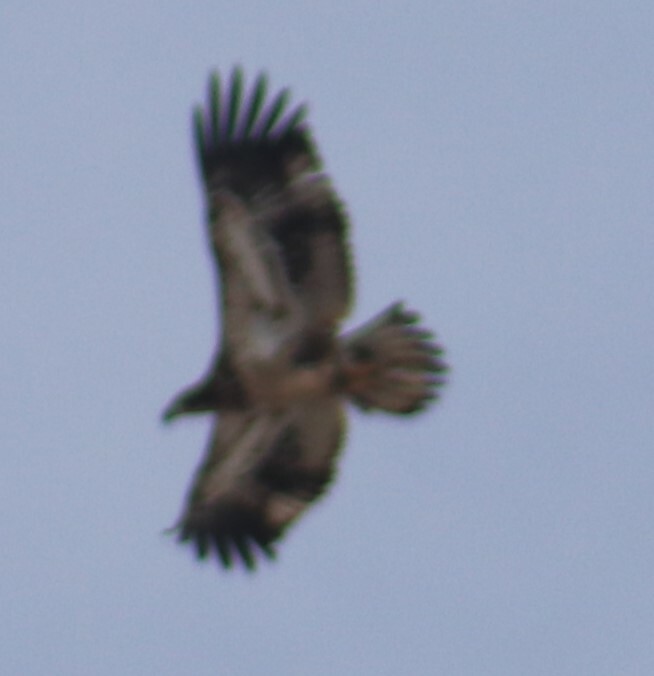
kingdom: Animalia
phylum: Chordata
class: Aves
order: Accipitriformes
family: Accipitridae
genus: Haliaeetus
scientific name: Haliaeetus leucocephalus
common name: Bald eagle
